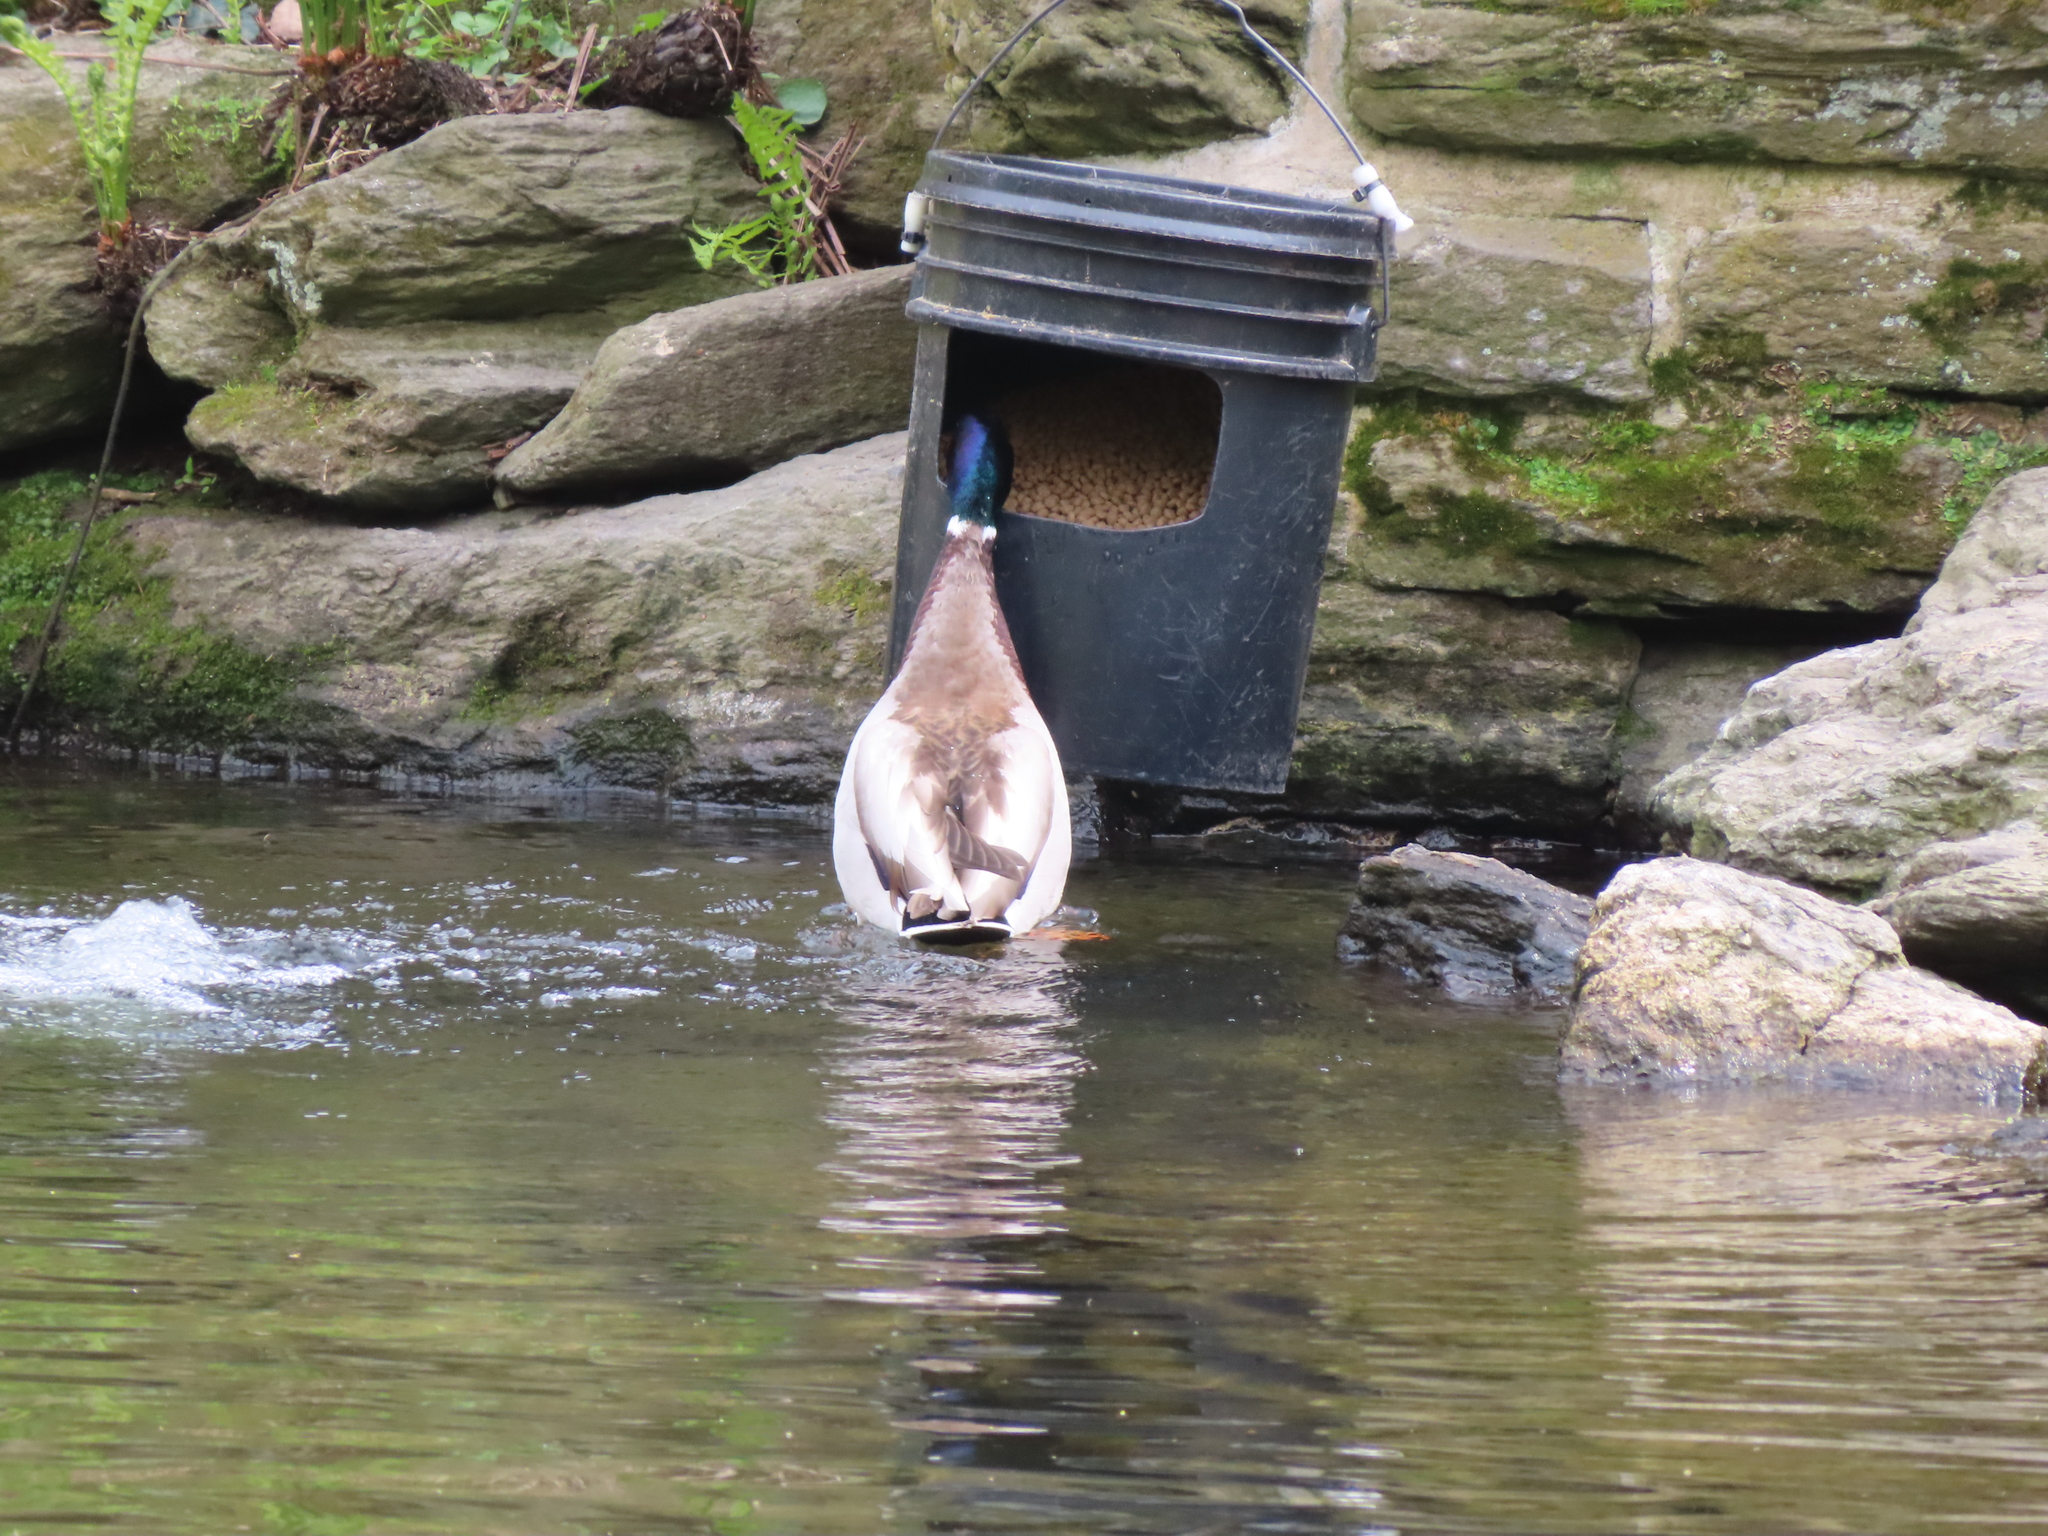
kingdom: Animalia
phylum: Chordata
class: Aves
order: Anseriformes
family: Anatidae
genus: Anas
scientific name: Anas platyrhynchos
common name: Mallard
